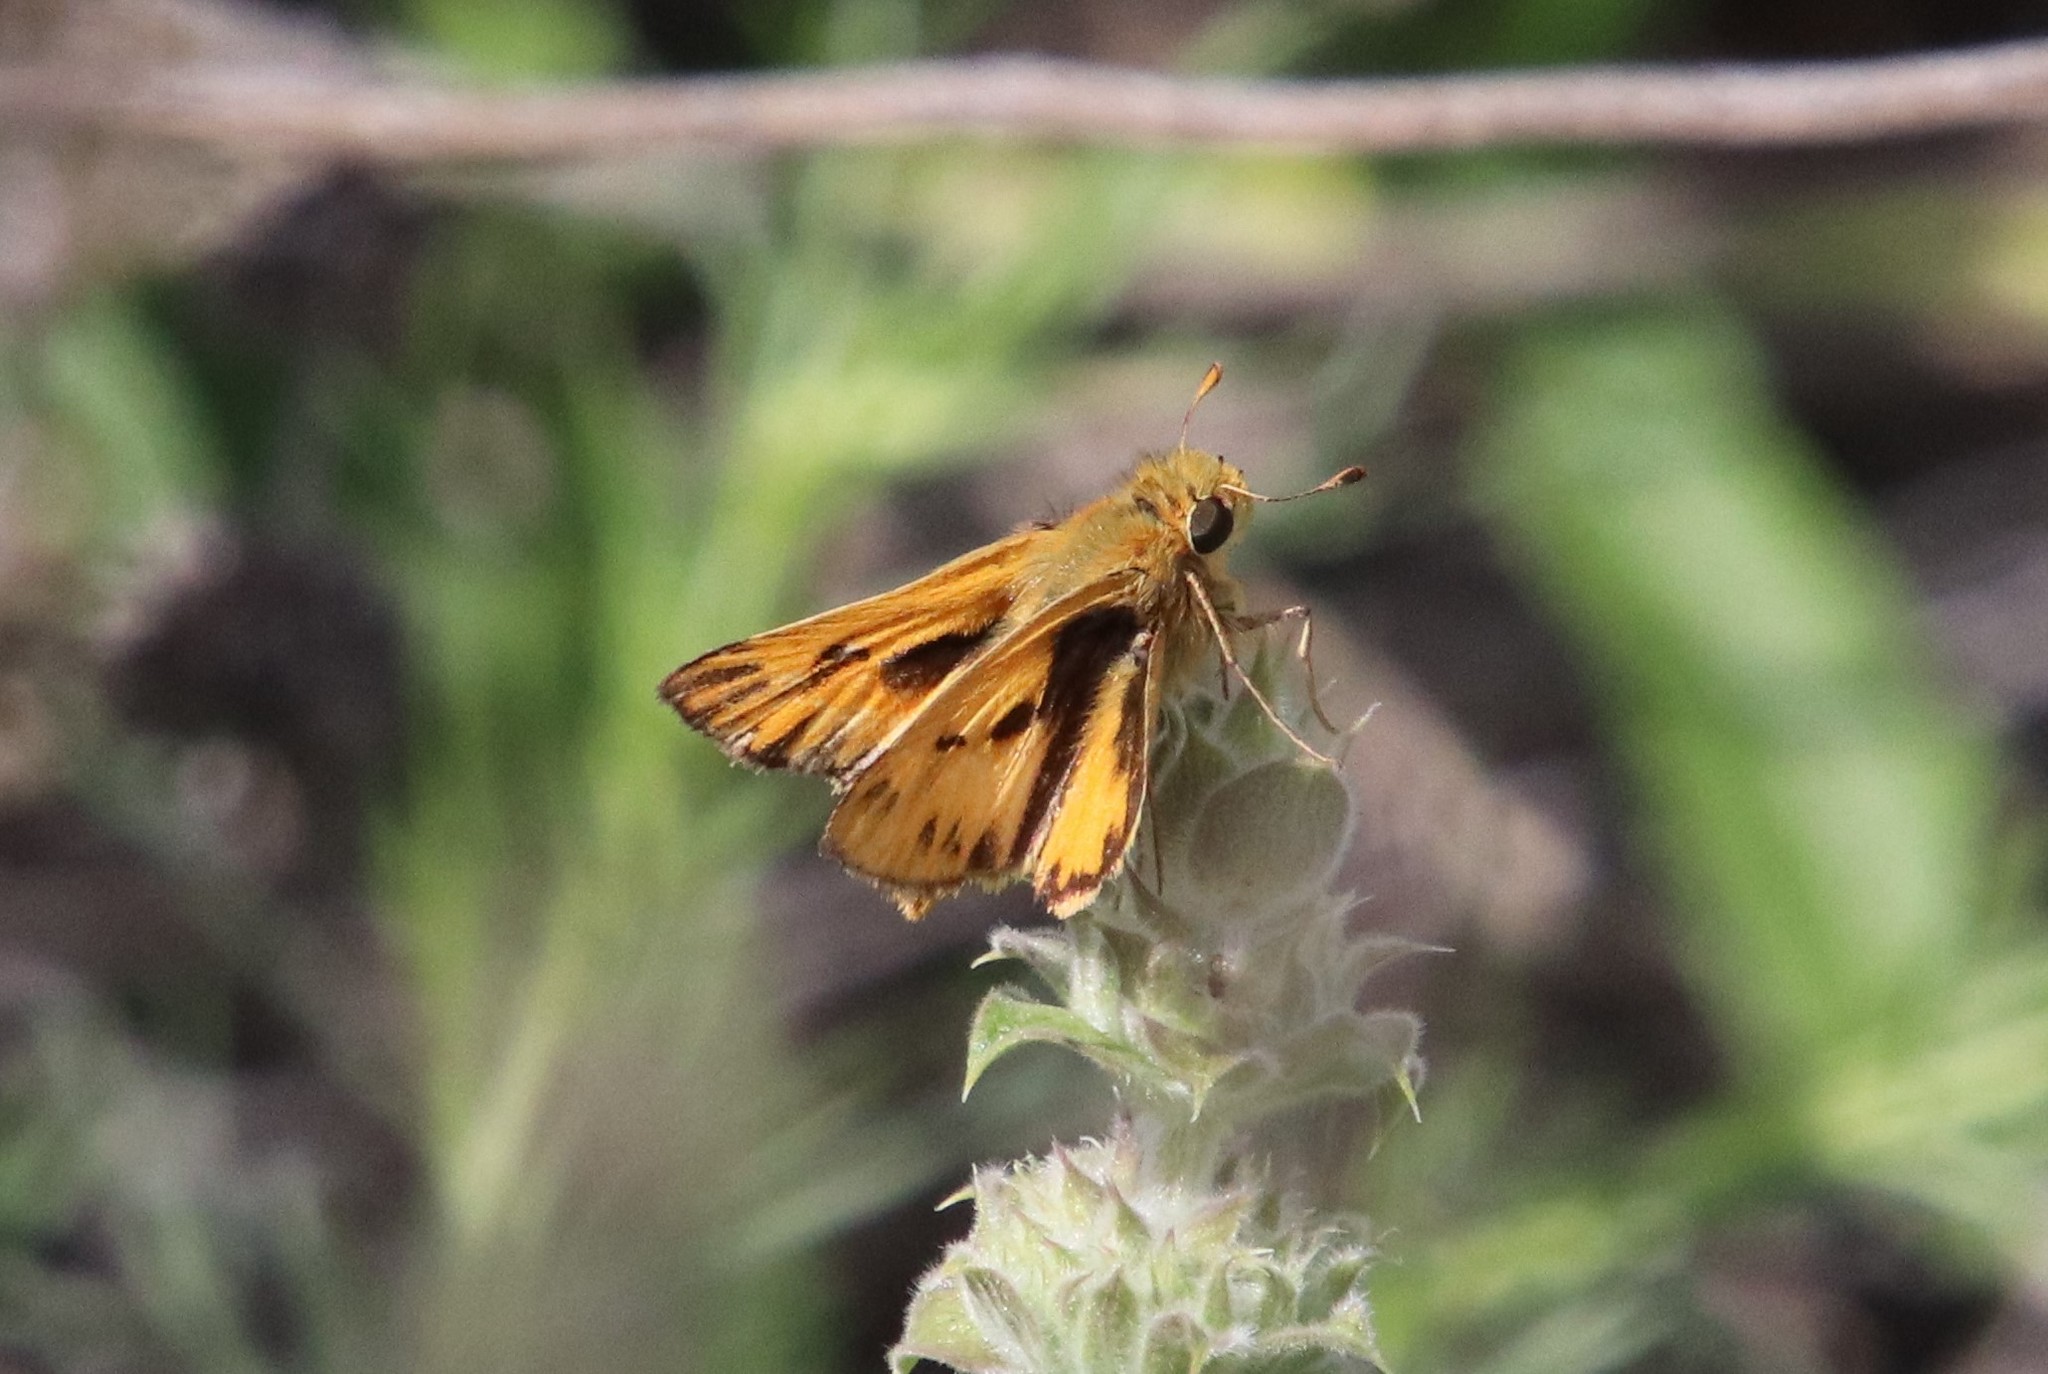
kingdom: Animalia
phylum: Arthropoda
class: Insecta
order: Lepidoptera
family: Hesperiidae
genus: Hylephila
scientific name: Hylephila phyleus
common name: Fiery skipper
